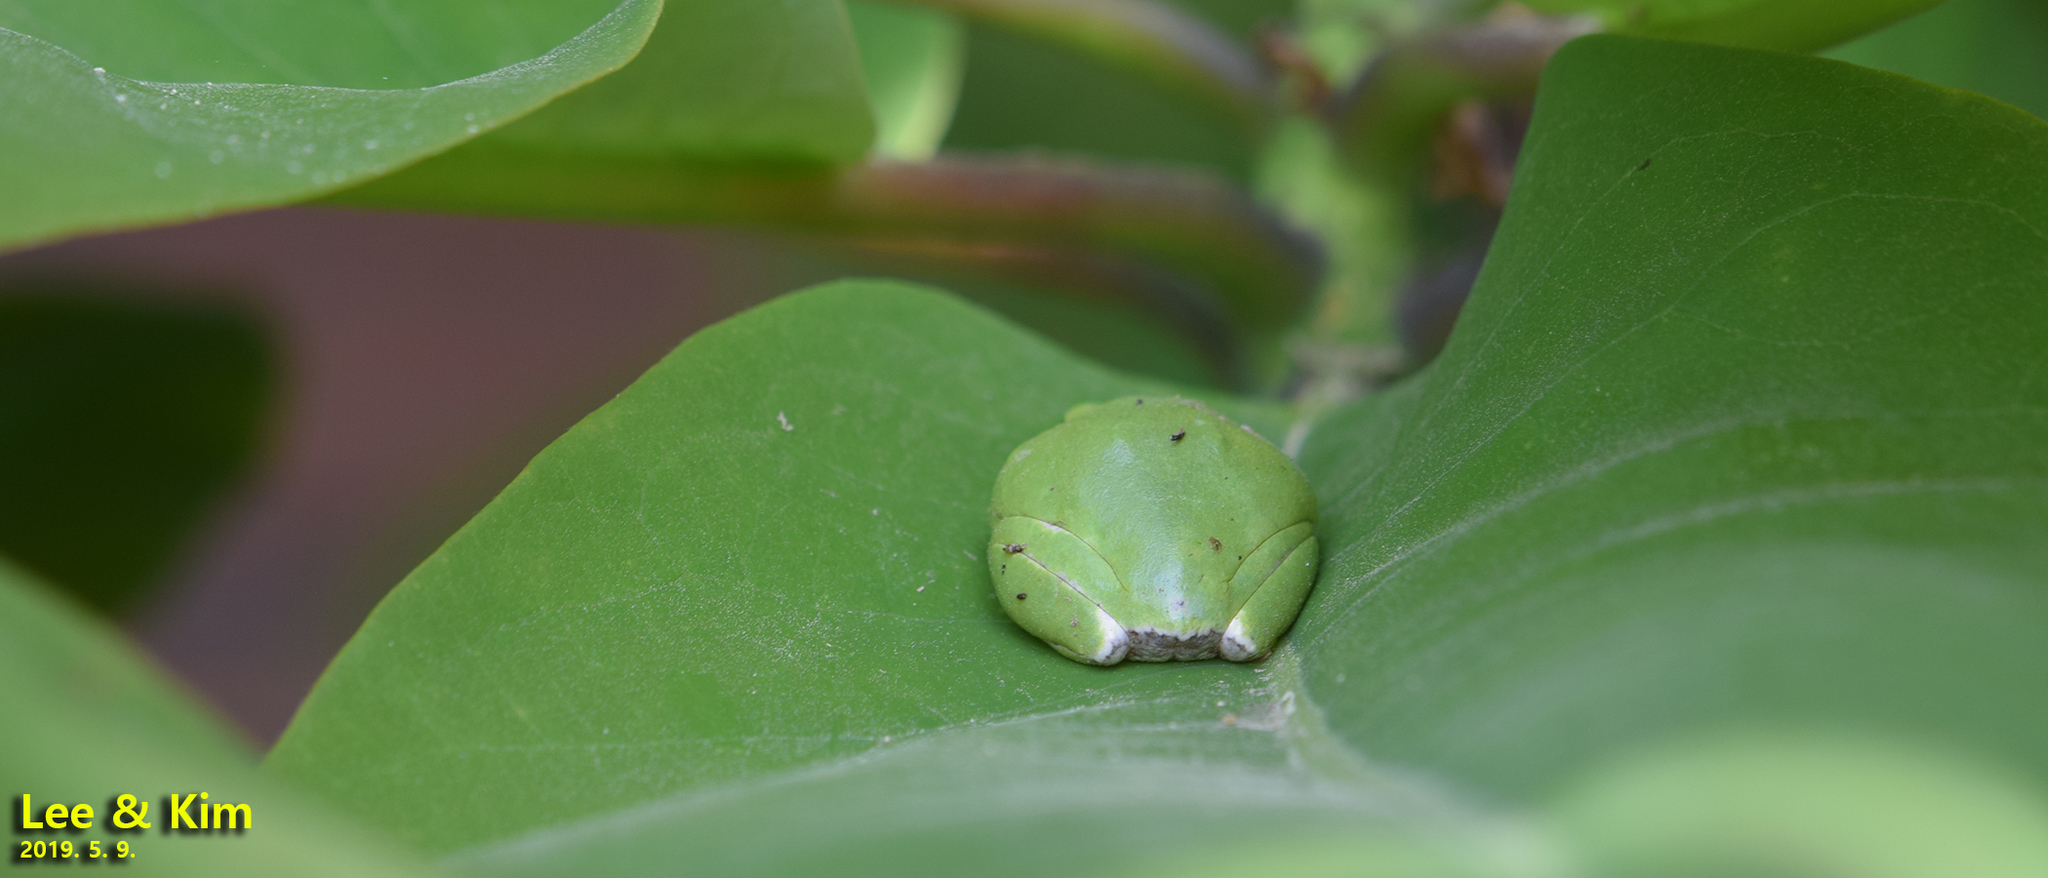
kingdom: Animalia
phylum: Chordata
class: Amphibia
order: Anura
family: Hylidae
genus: Dryophytes
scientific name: Dryophytes japonicus
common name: Japanese treefrog
